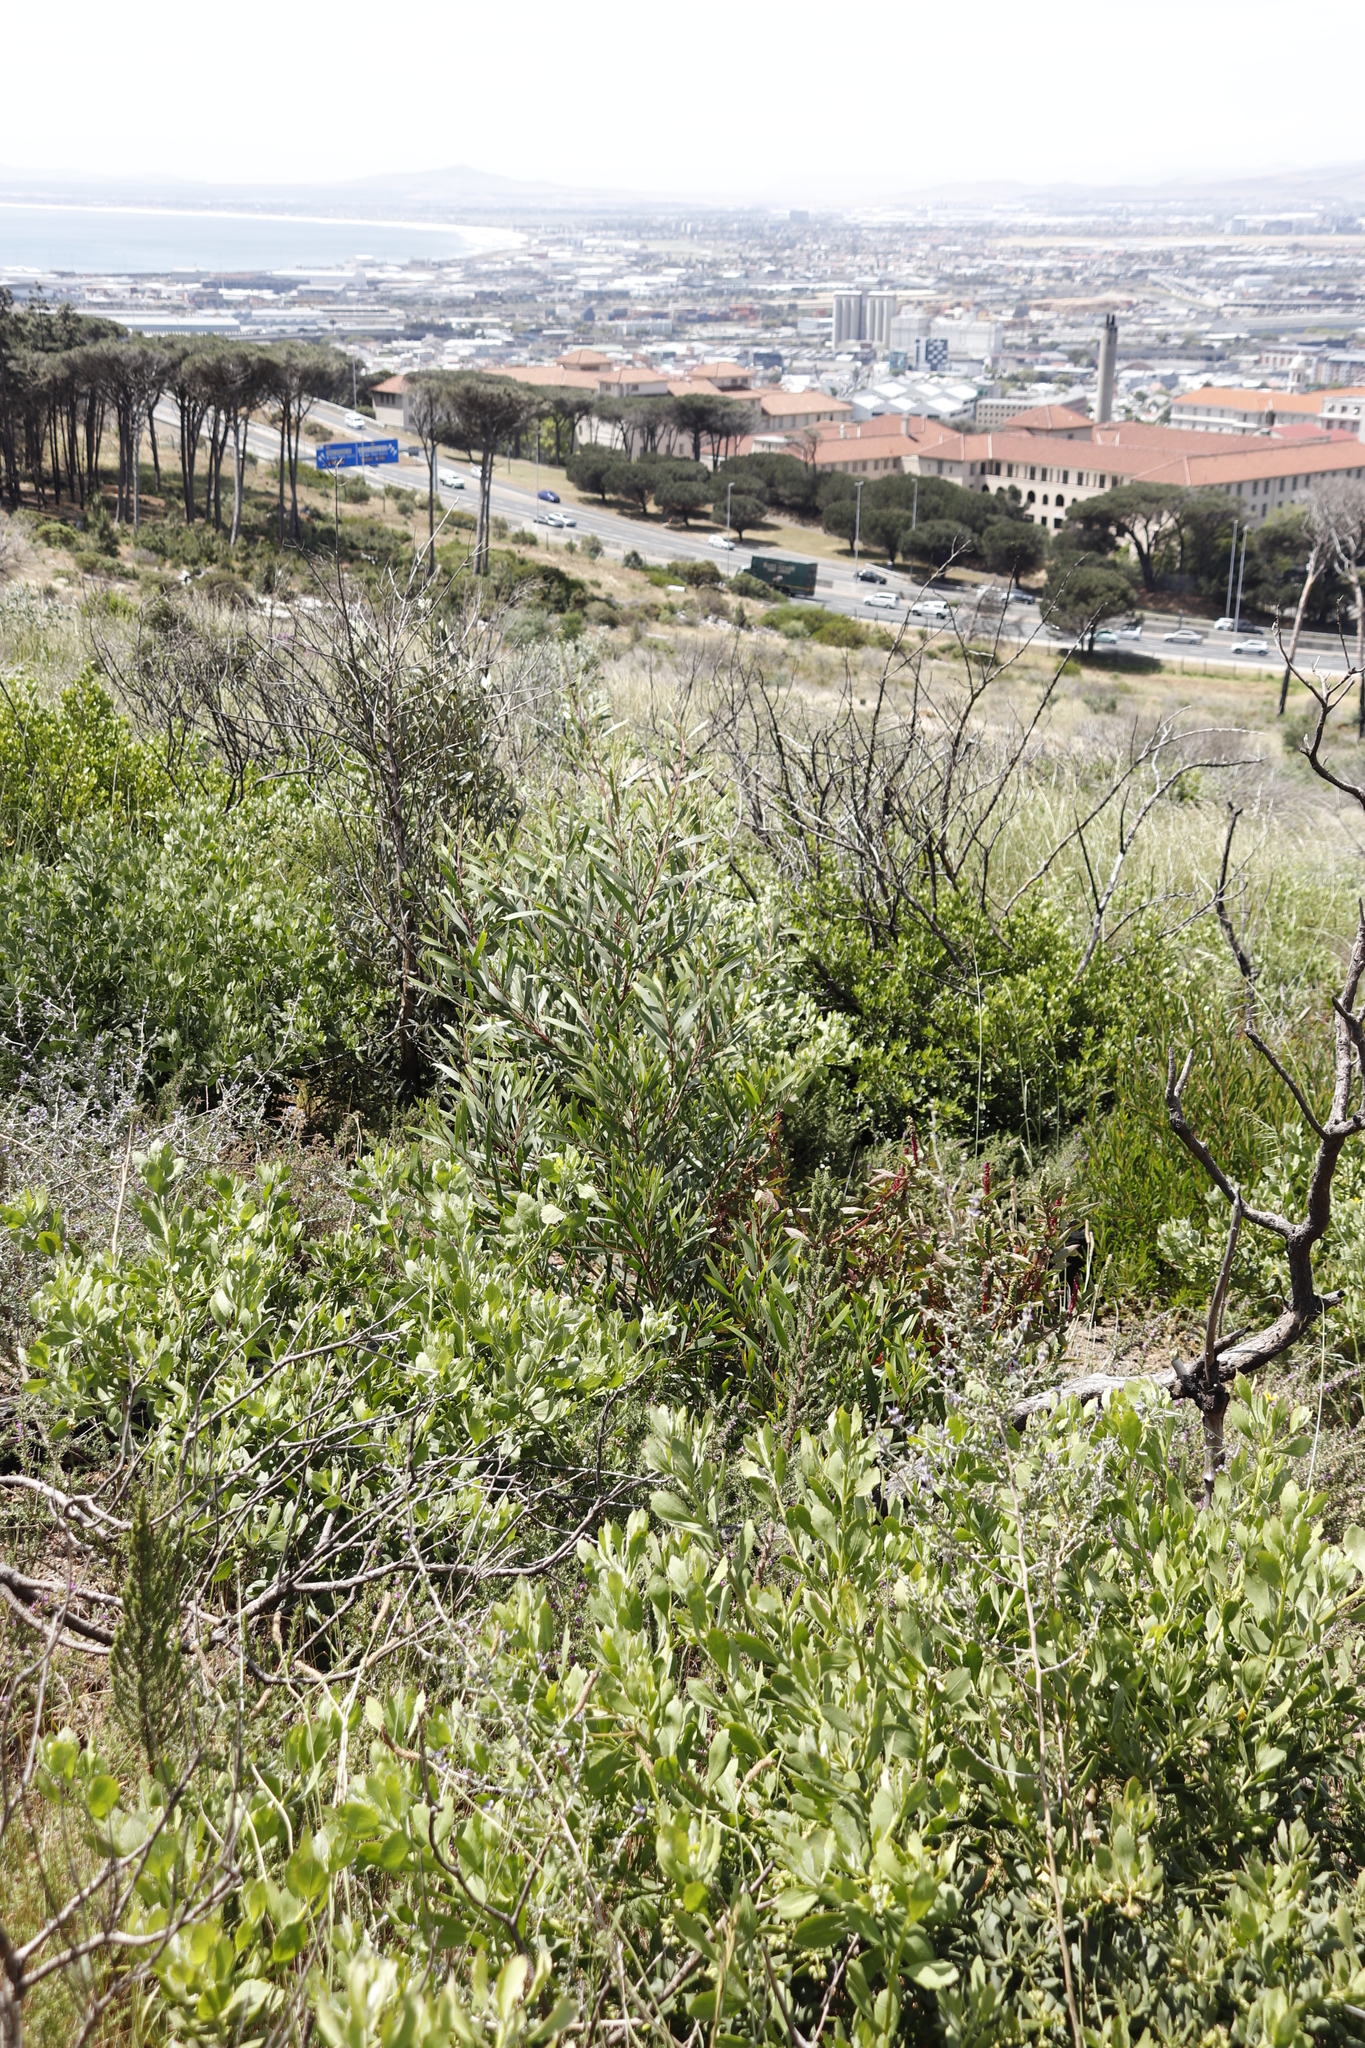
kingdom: Plantae
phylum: Tracheophyta
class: Magnoliopsida
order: Fabales
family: Fabaceae
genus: Acacia
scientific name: Acacia longifolia
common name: Sydney golden wattle
